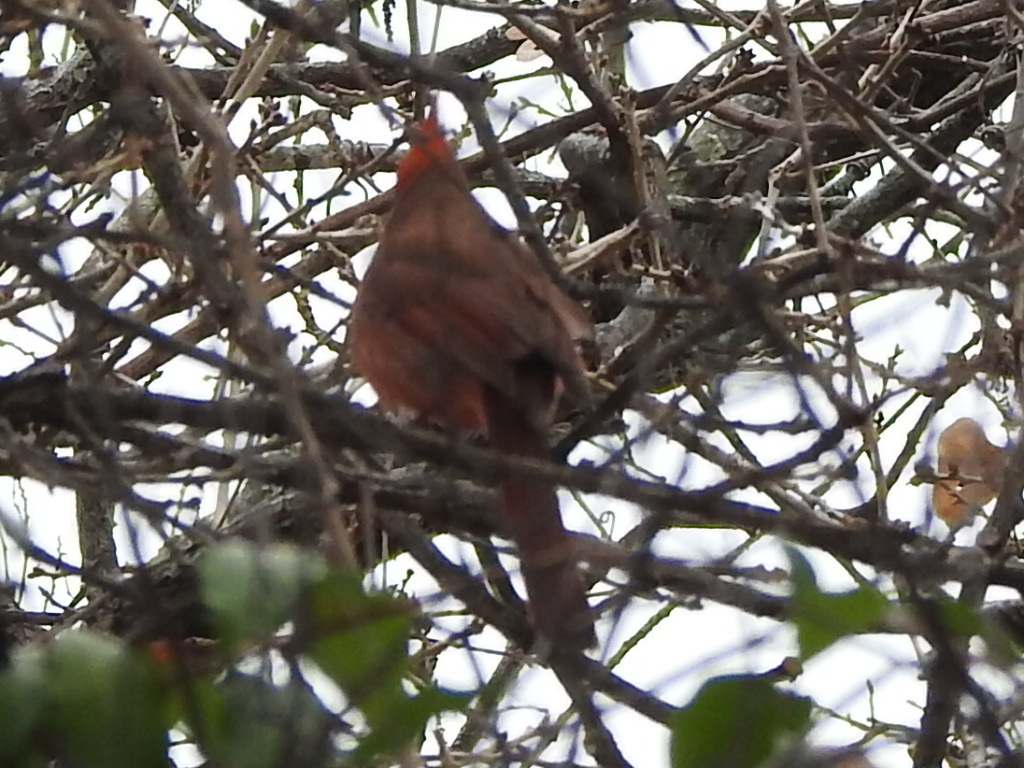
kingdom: Animalia
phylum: Chordata
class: Aves
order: Passeriformes
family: Cardinalidae
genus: Cardinalis
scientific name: Cardinalis cardinalis
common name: Northern cardinal
